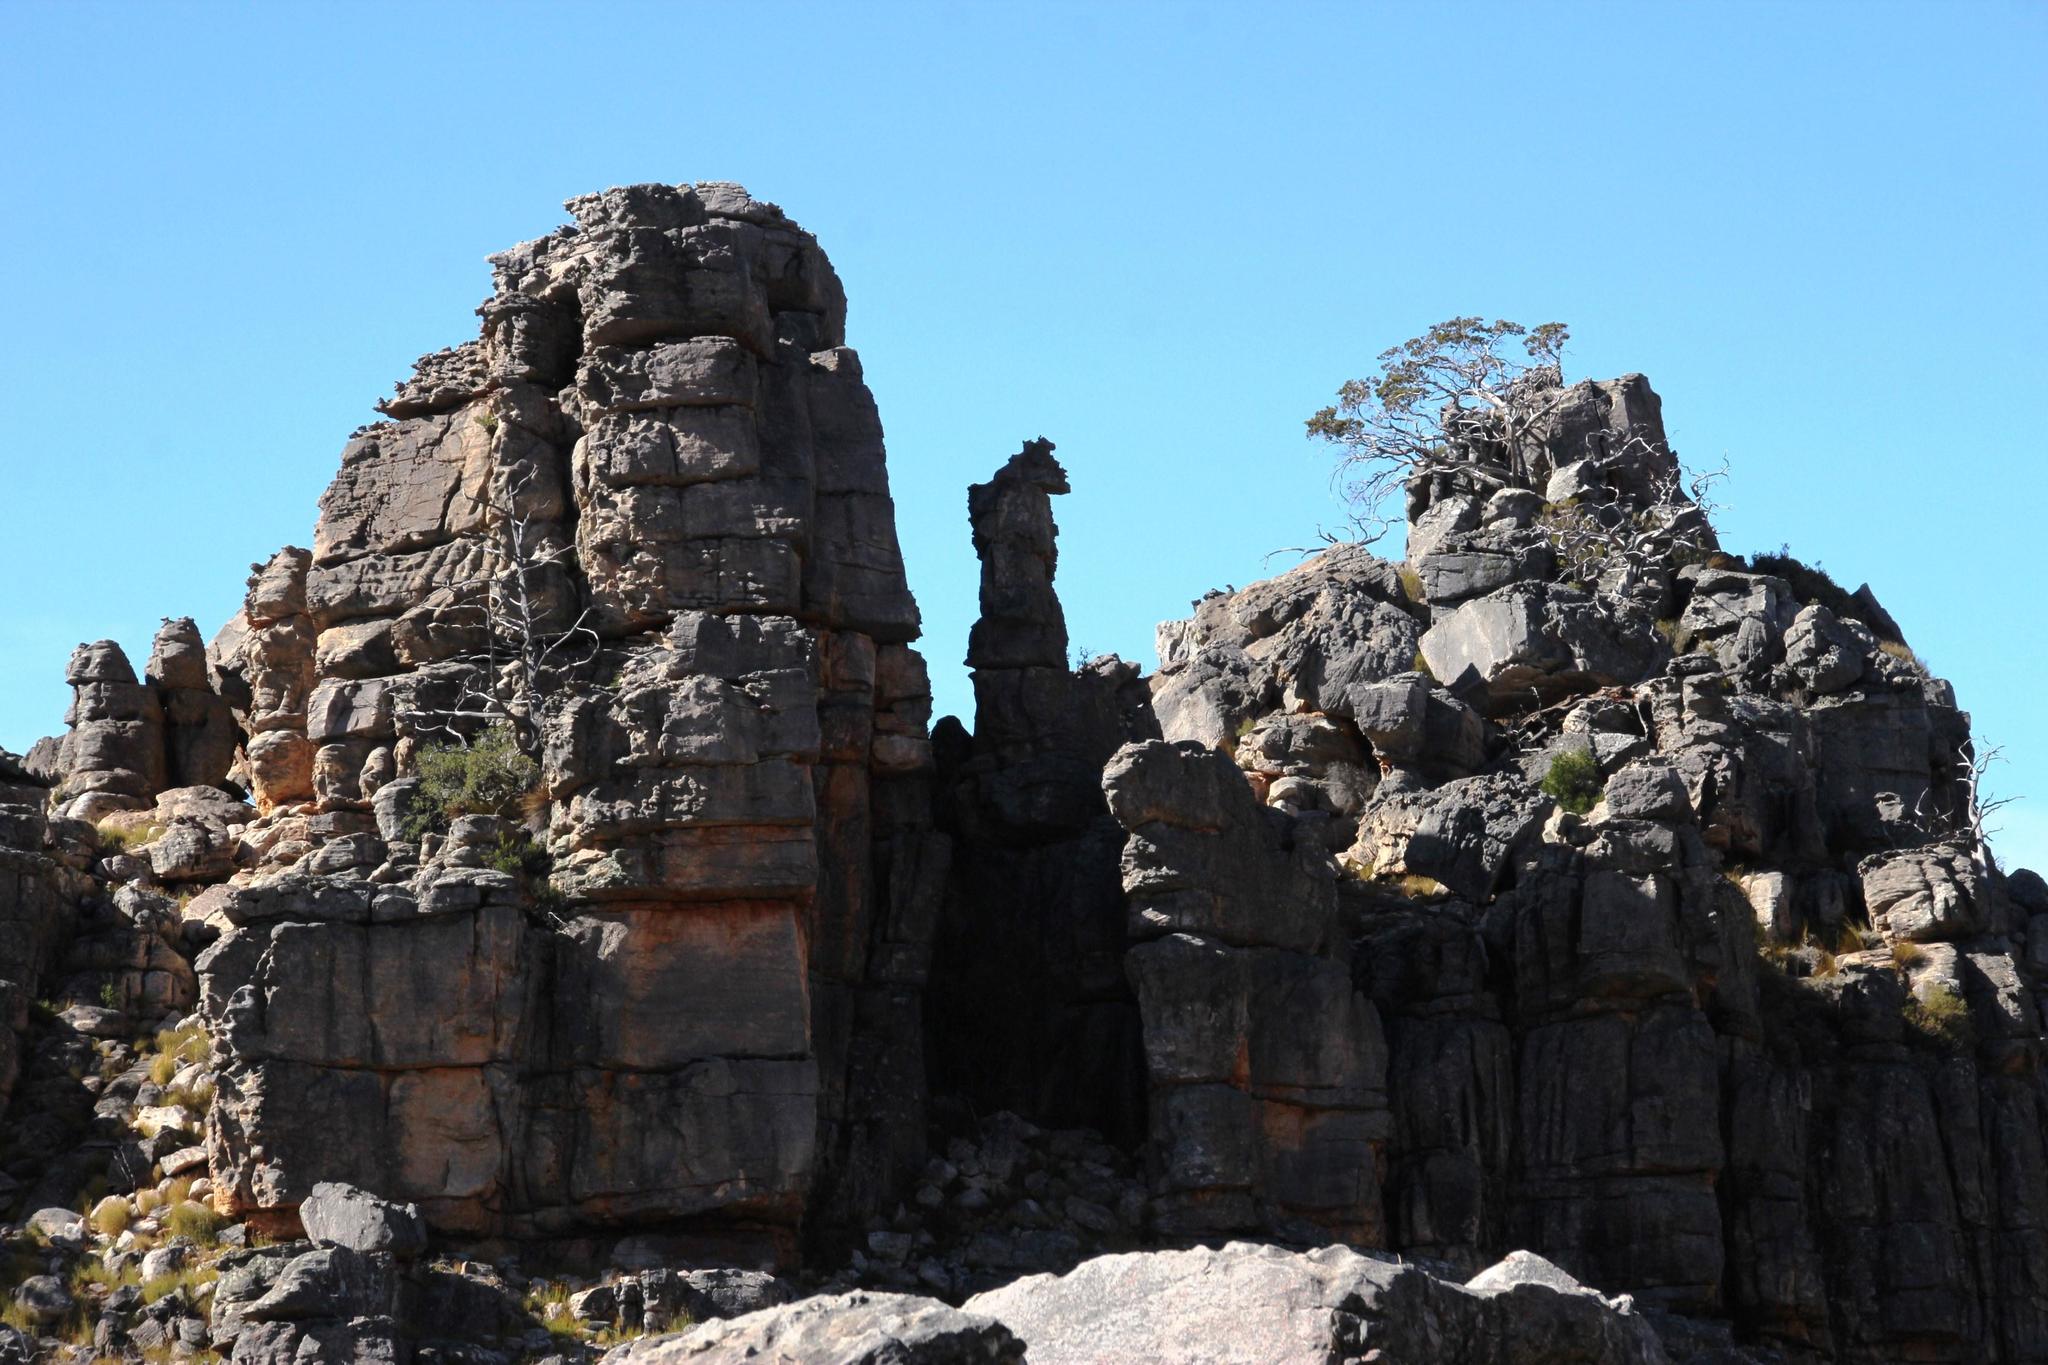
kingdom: Plantae
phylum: Tracheophyta
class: Pinopsida
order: Pinales
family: Cupressaceae
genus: Widdringtonia
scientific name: Widdringtonia nodiflora
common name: Cape cypress
